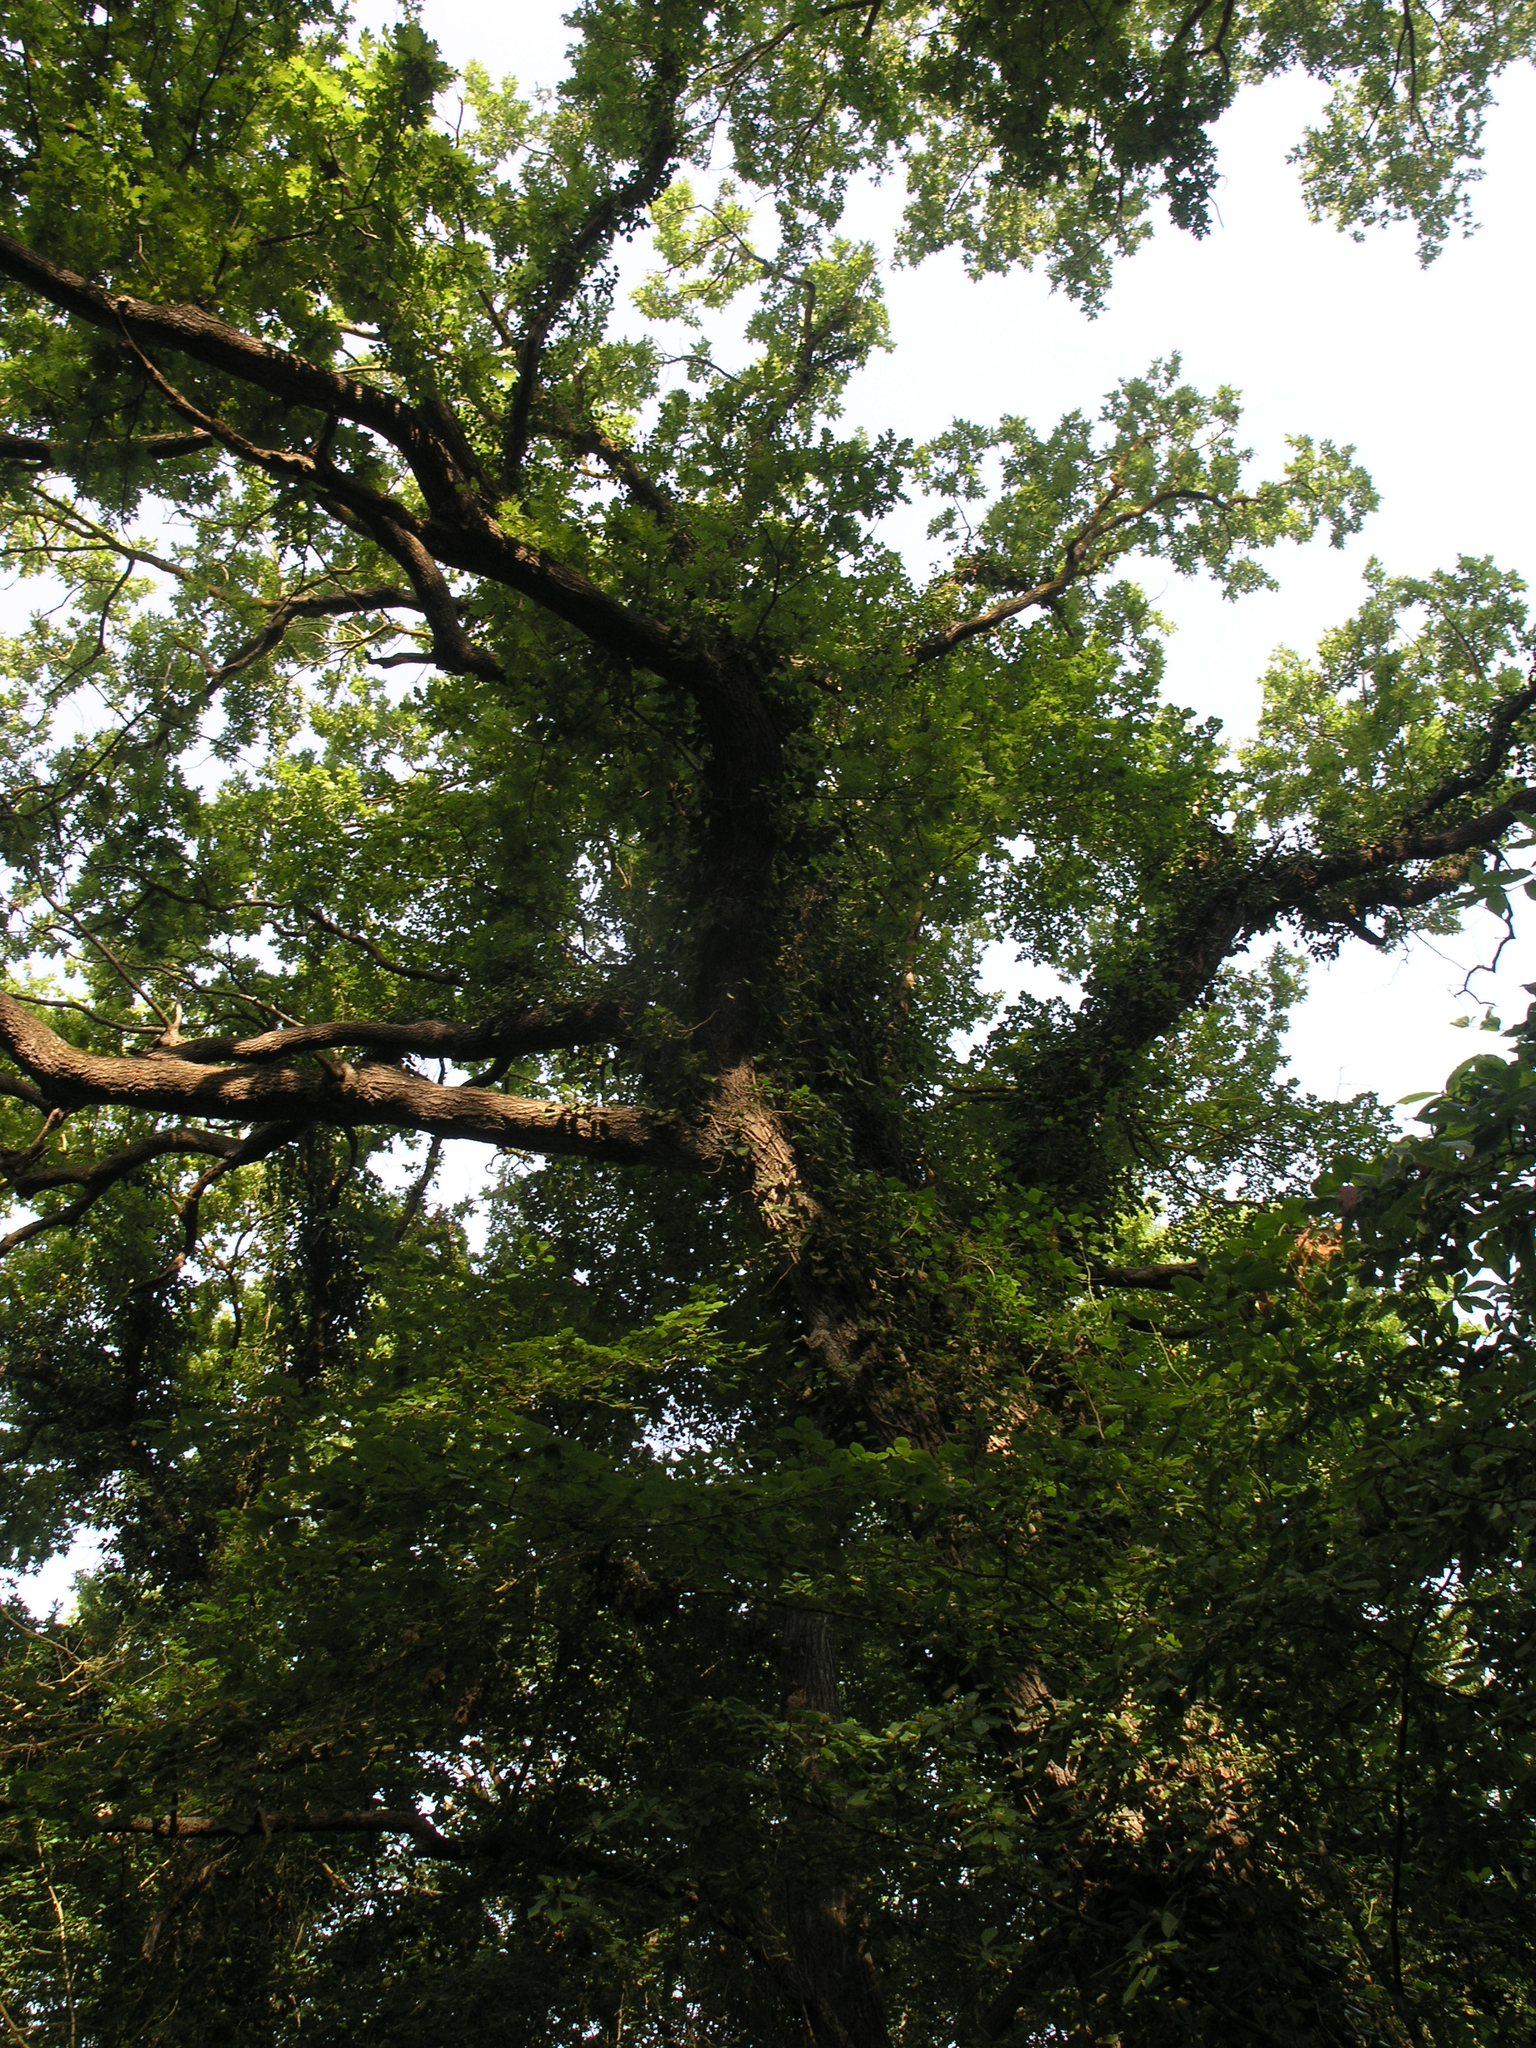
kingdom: Plantae
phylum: Tracheophyta
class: Magnoliopsida
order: Fagales
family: Fagaceae
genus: Quercus
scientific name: Quercus robur
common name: Pedunculate oak
